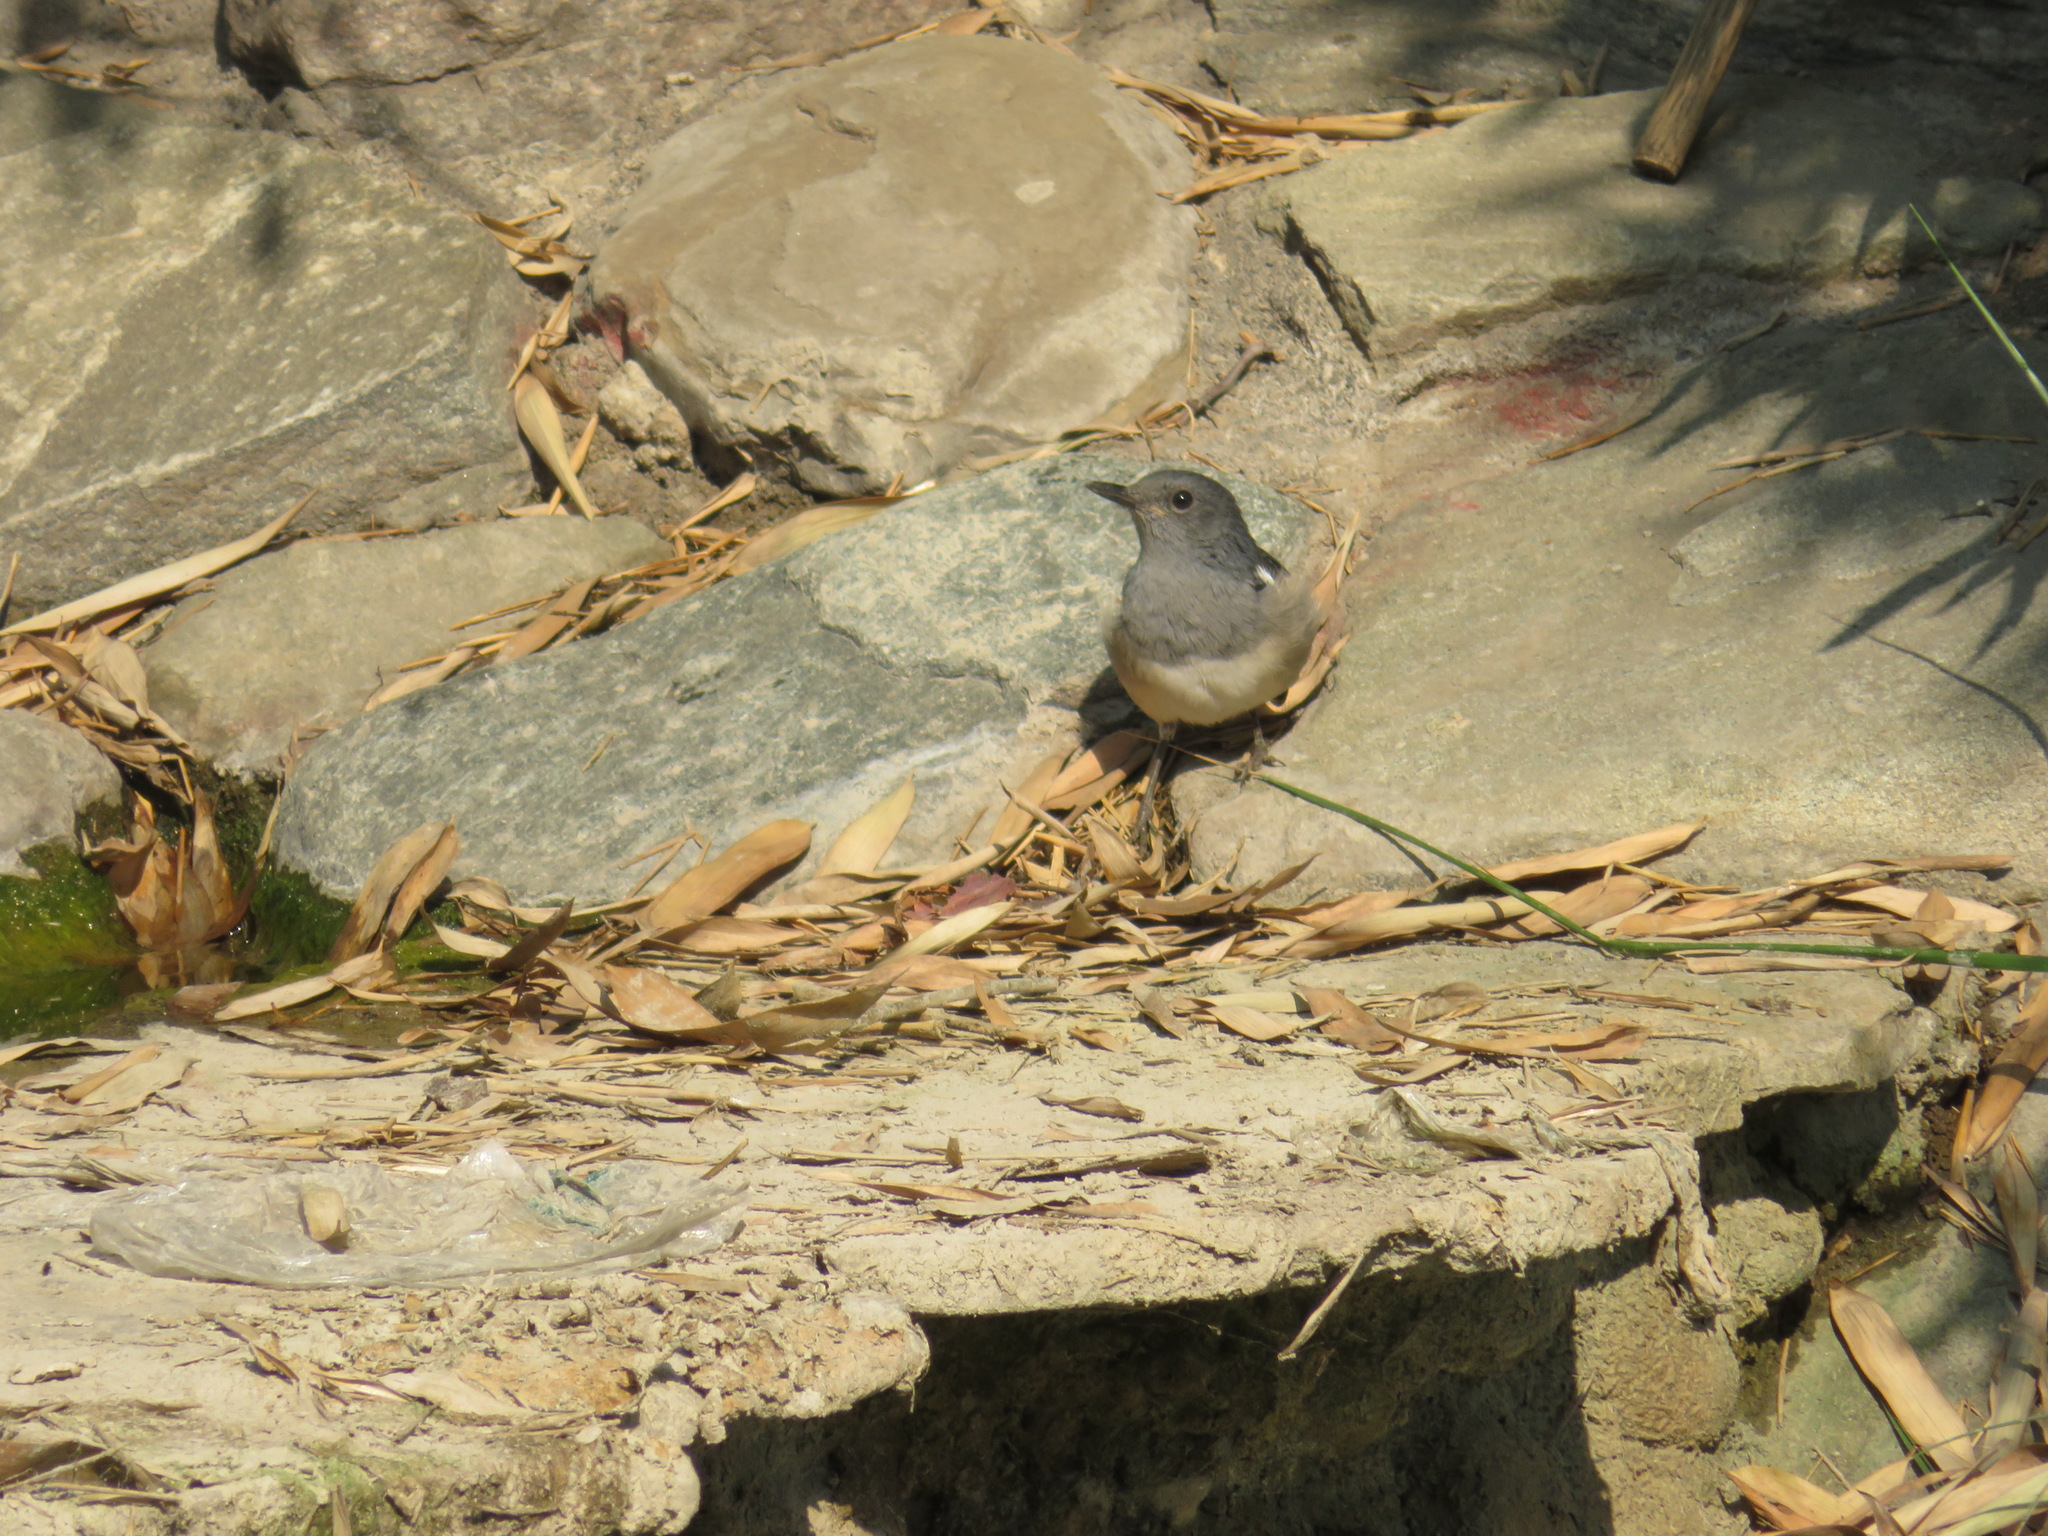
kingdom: Animalia
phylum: Chordata
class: Aves
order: Passeriformes
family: Muscicapidae
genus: Copsychus
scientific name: Copsychus saularis
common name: Oriental magpie-robin
